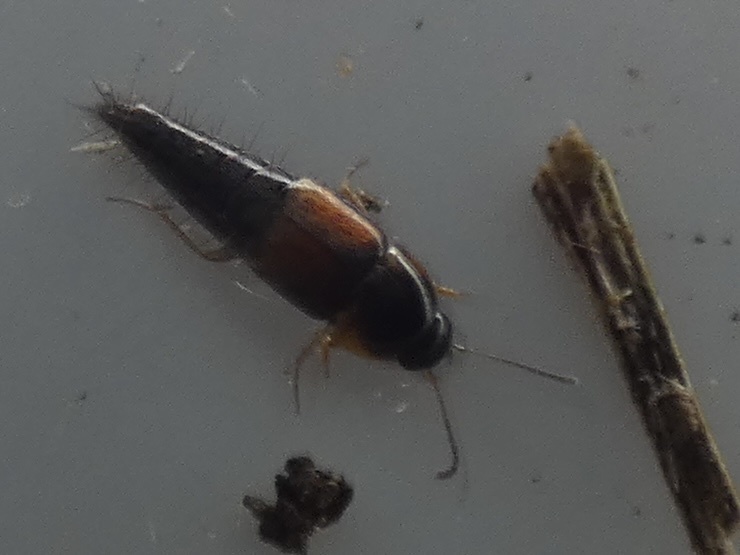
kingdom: Animalia
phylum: Arthropoda
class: Insecta
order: Coleoptera
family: Staphylinidae
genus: Tachyporus
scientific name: Tachyporus hypnorum
